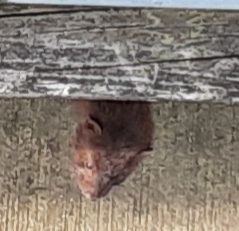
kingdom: Animalia
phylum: Chordata
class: Mammalia
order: Carnivora
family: Mustelidae
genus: Mustela
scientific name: Mustela
